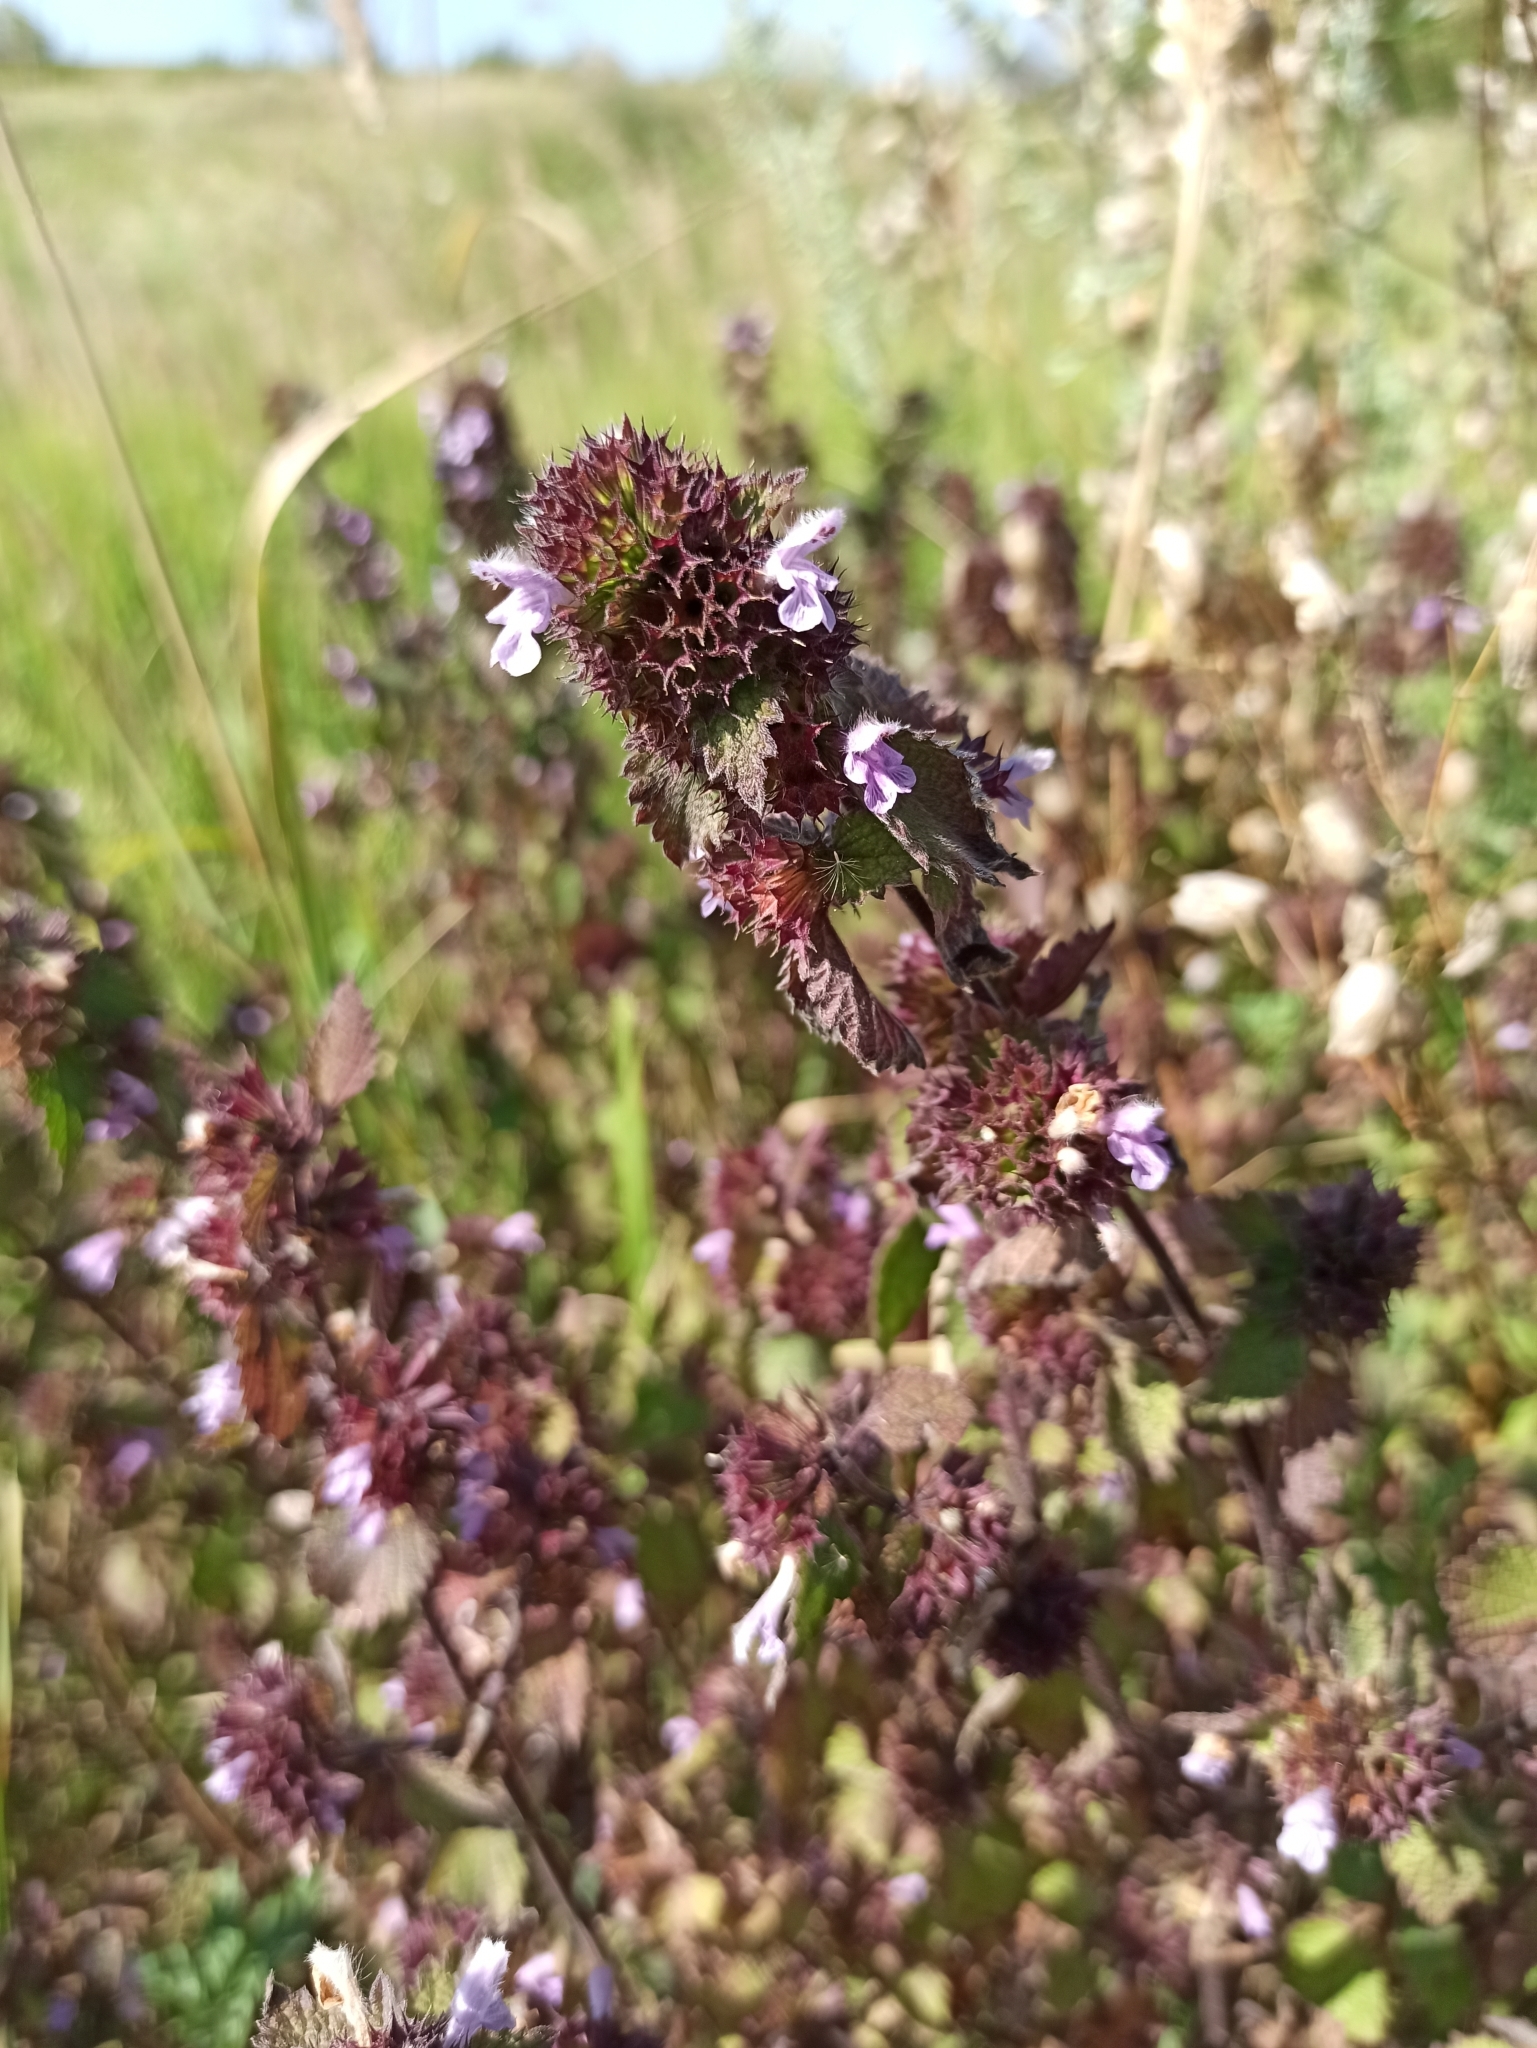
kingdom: Plantae
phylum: Tracheophyta
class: Magnoliopsida
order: Lamiales
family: Lamiaceae
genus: Ballota
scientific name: Ballota nigra
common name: Black horehound
